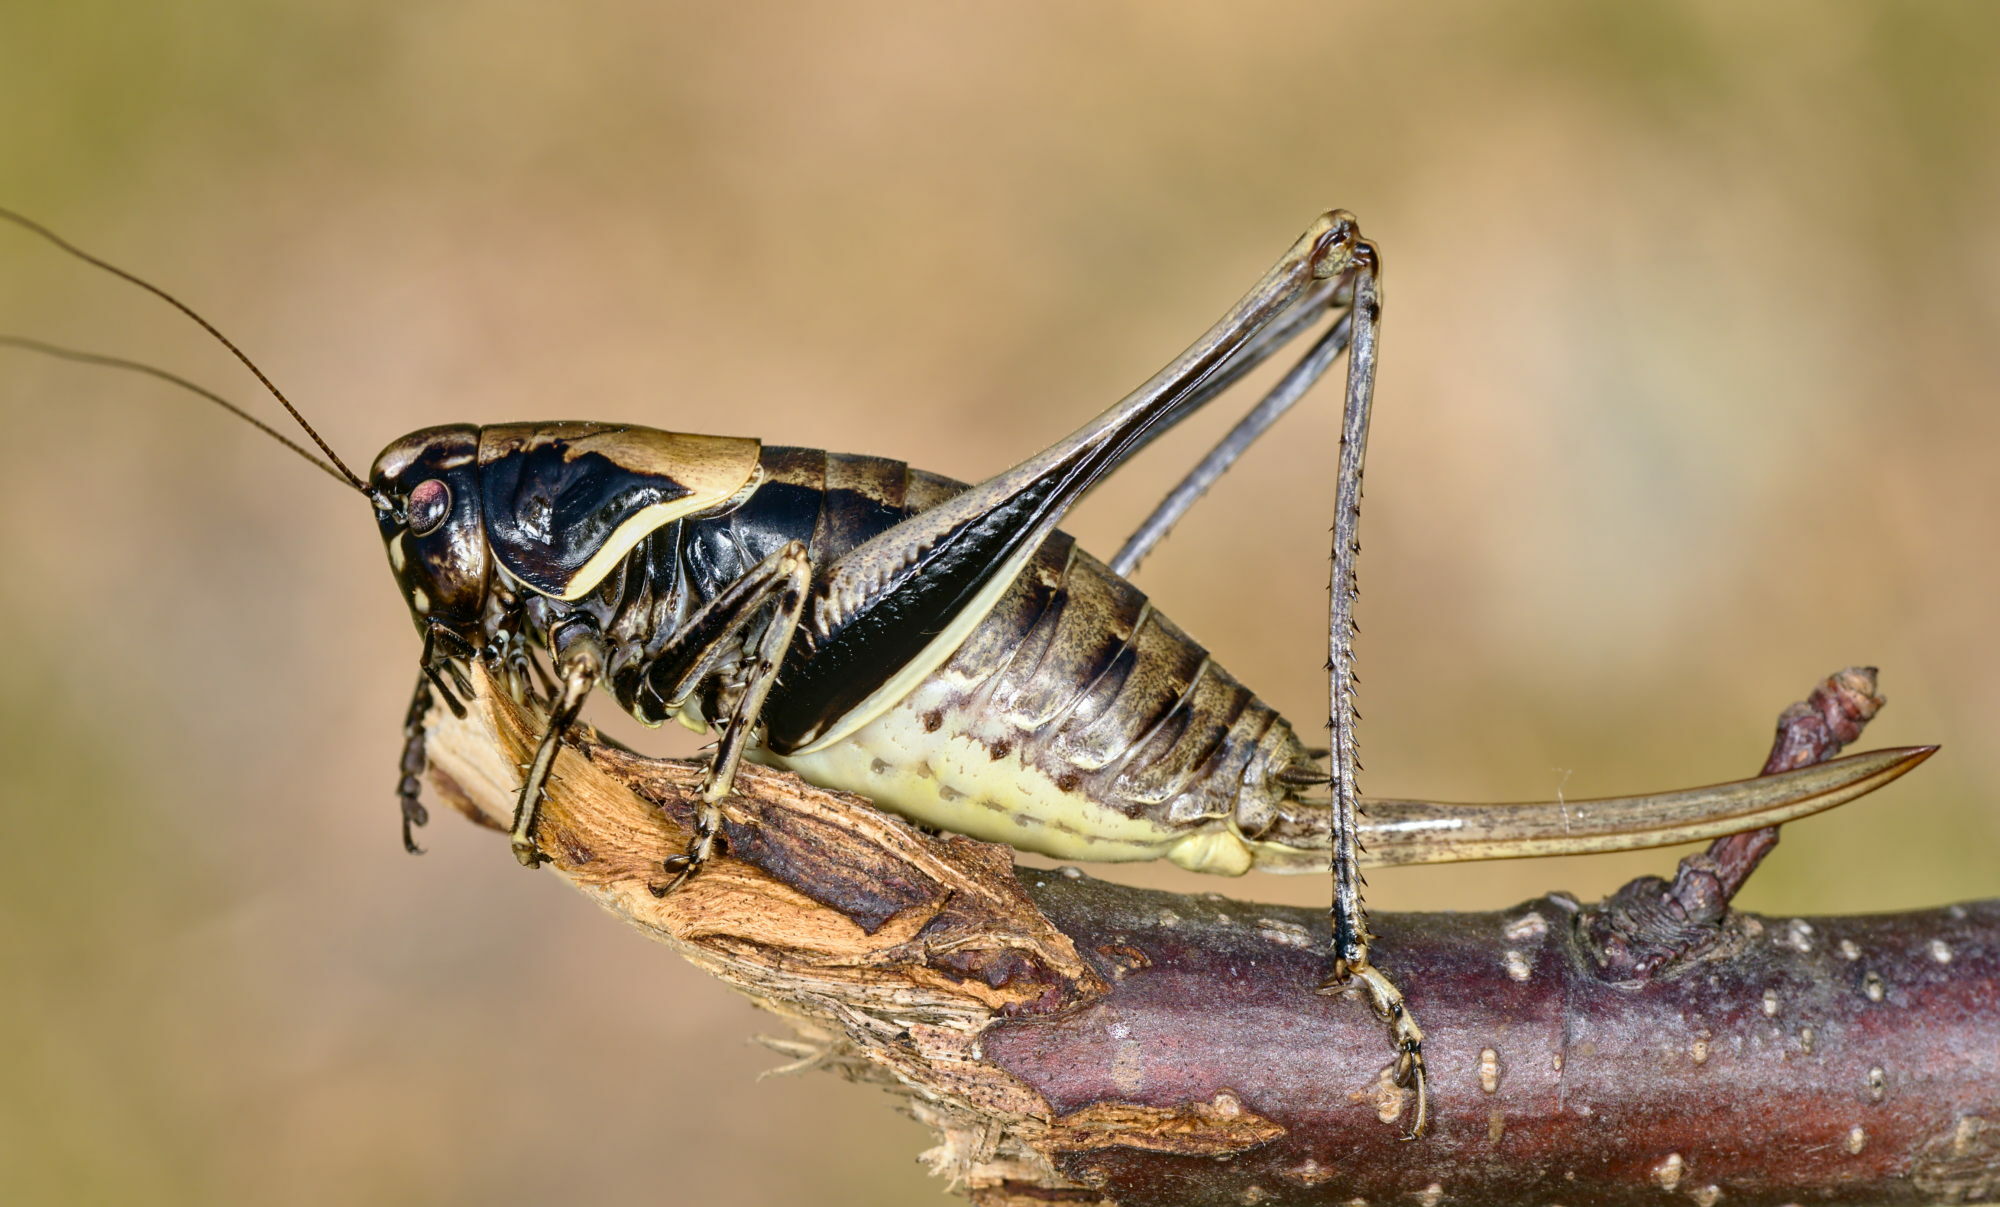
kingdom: Animalia
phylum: Arthropoda
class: Insecta
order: Orthoptera
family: Tettigoniidae
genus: Pholidoptera
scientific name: Pholidoptera aptera
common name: Alpine dark bush-cricket
